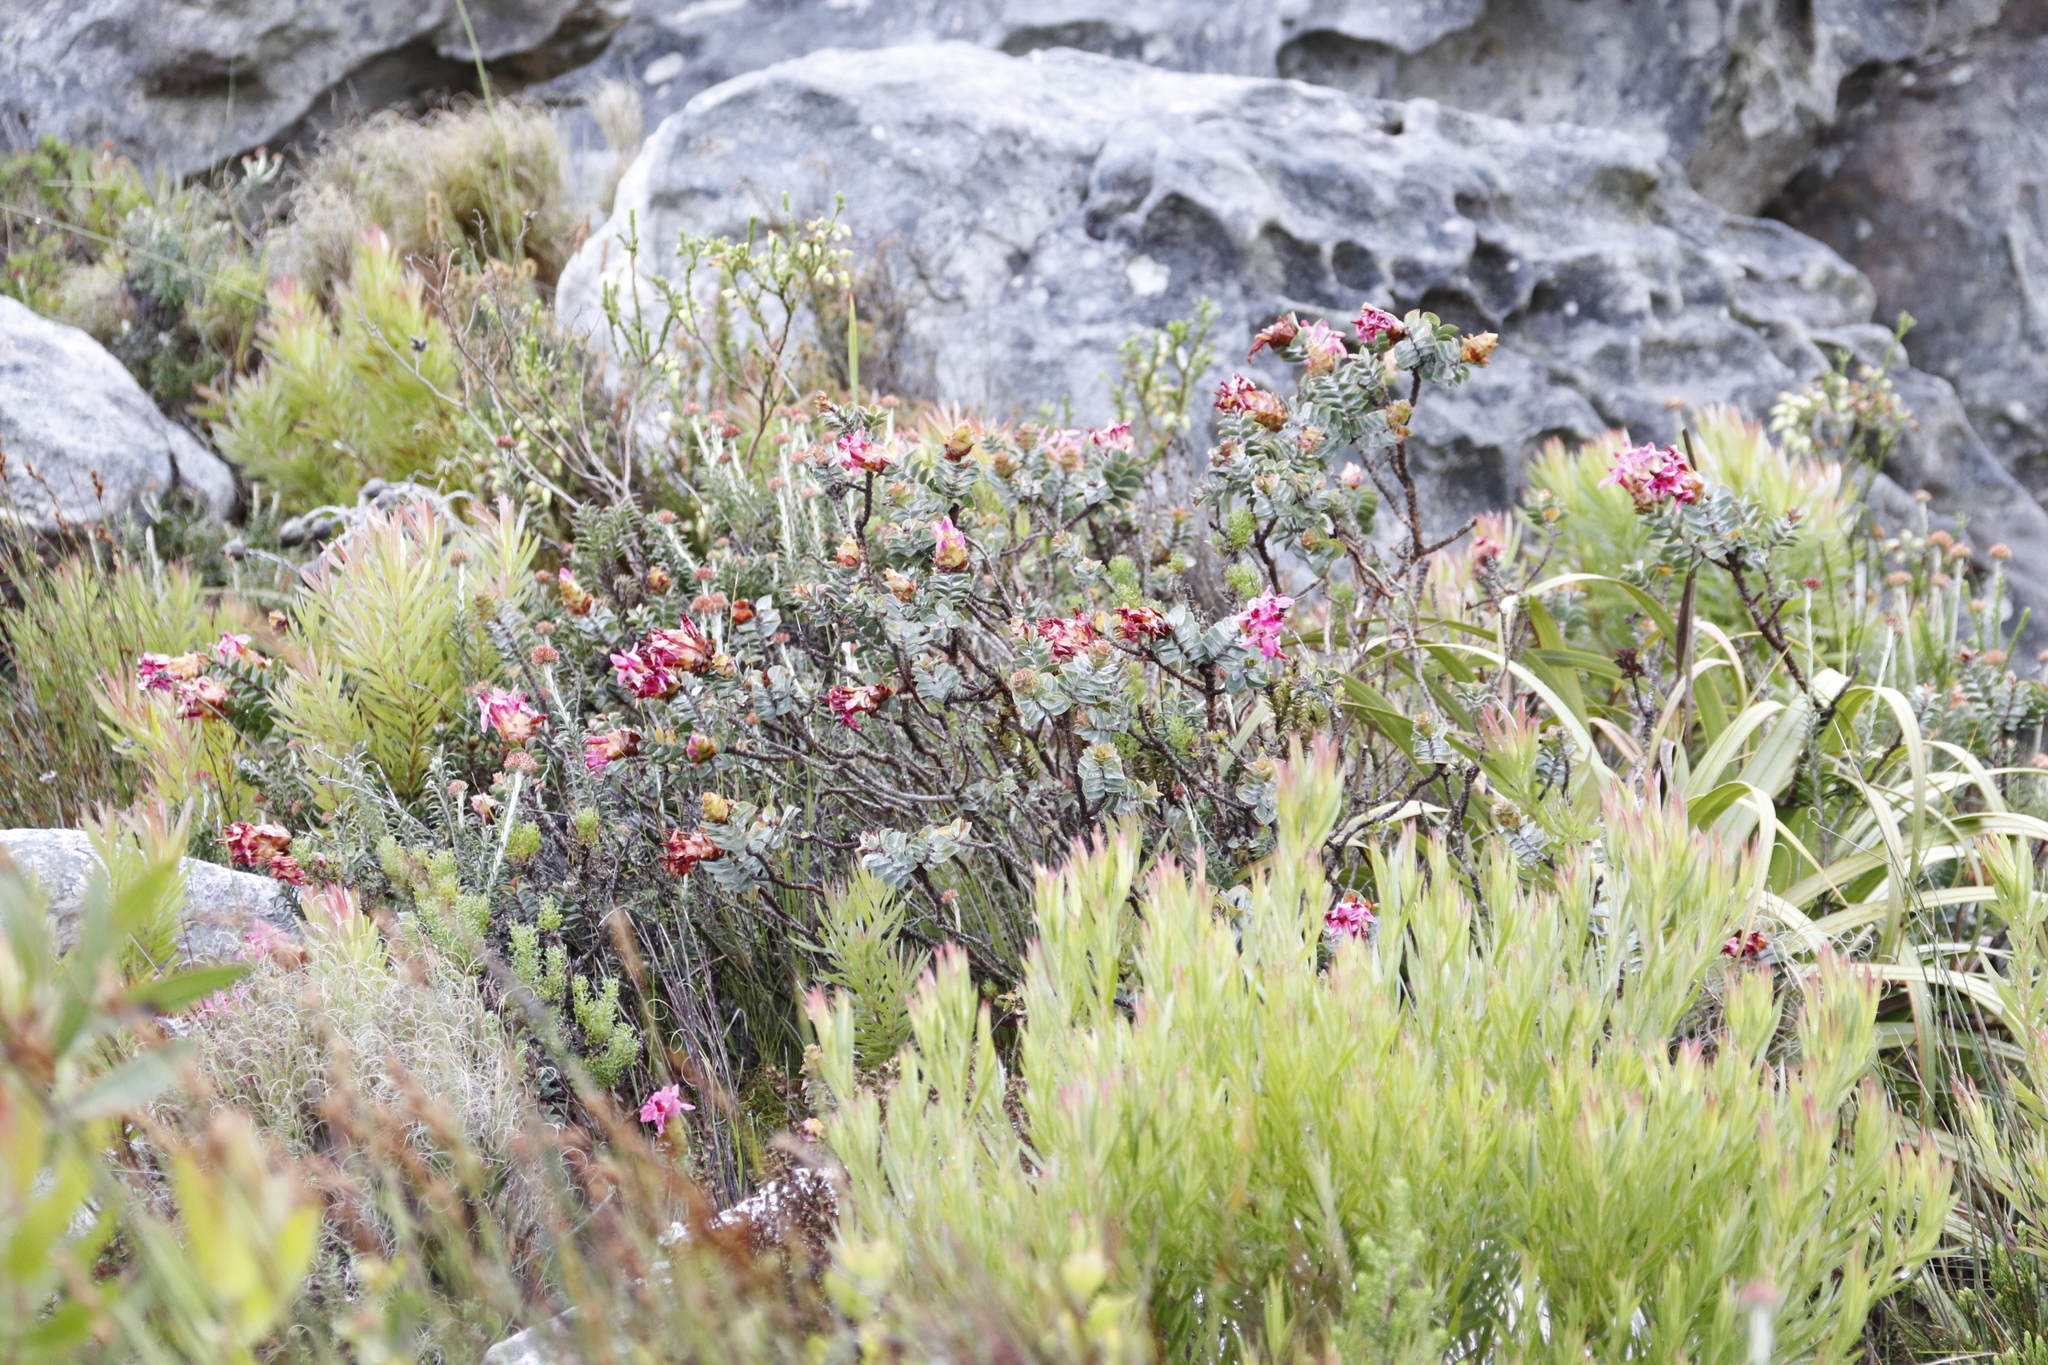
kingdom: Plantae
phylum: Tracheophyta
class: Magnoliopsida
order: Myrtales
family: Penaeaceae
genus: Saltera
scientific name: Saltera sarcocolla
